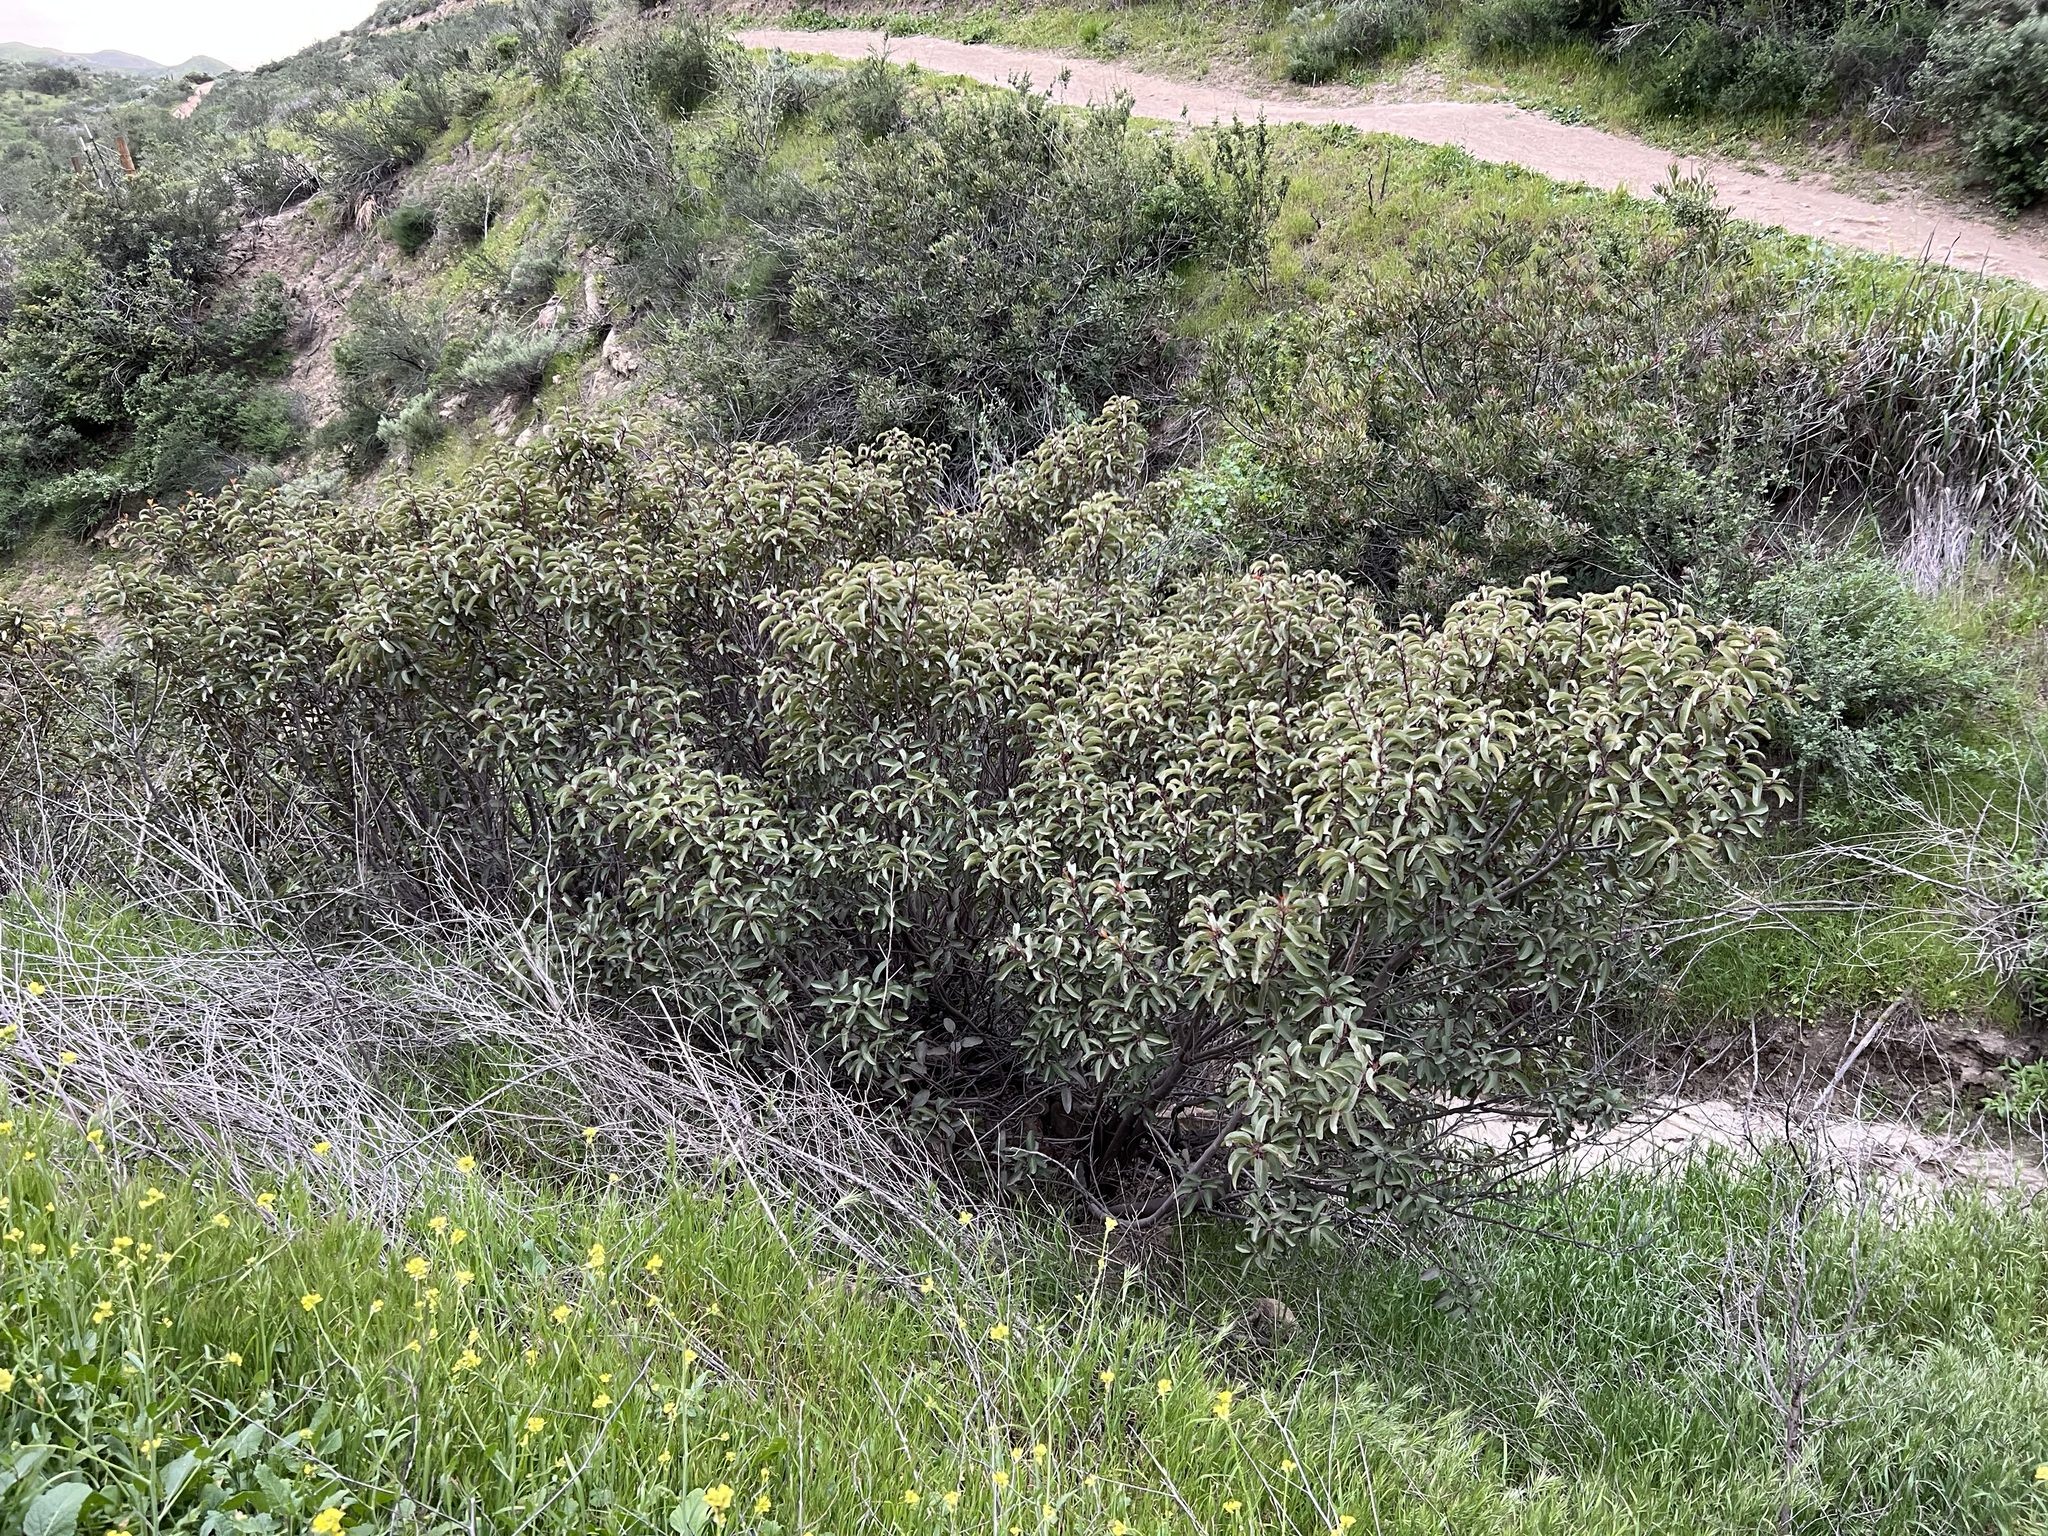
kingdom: Plantae
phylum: Tracheophyta
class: Magnoliopsida
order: Sapindales
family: Anacardiaceae
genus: Malosma
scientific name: Malosma laurina
